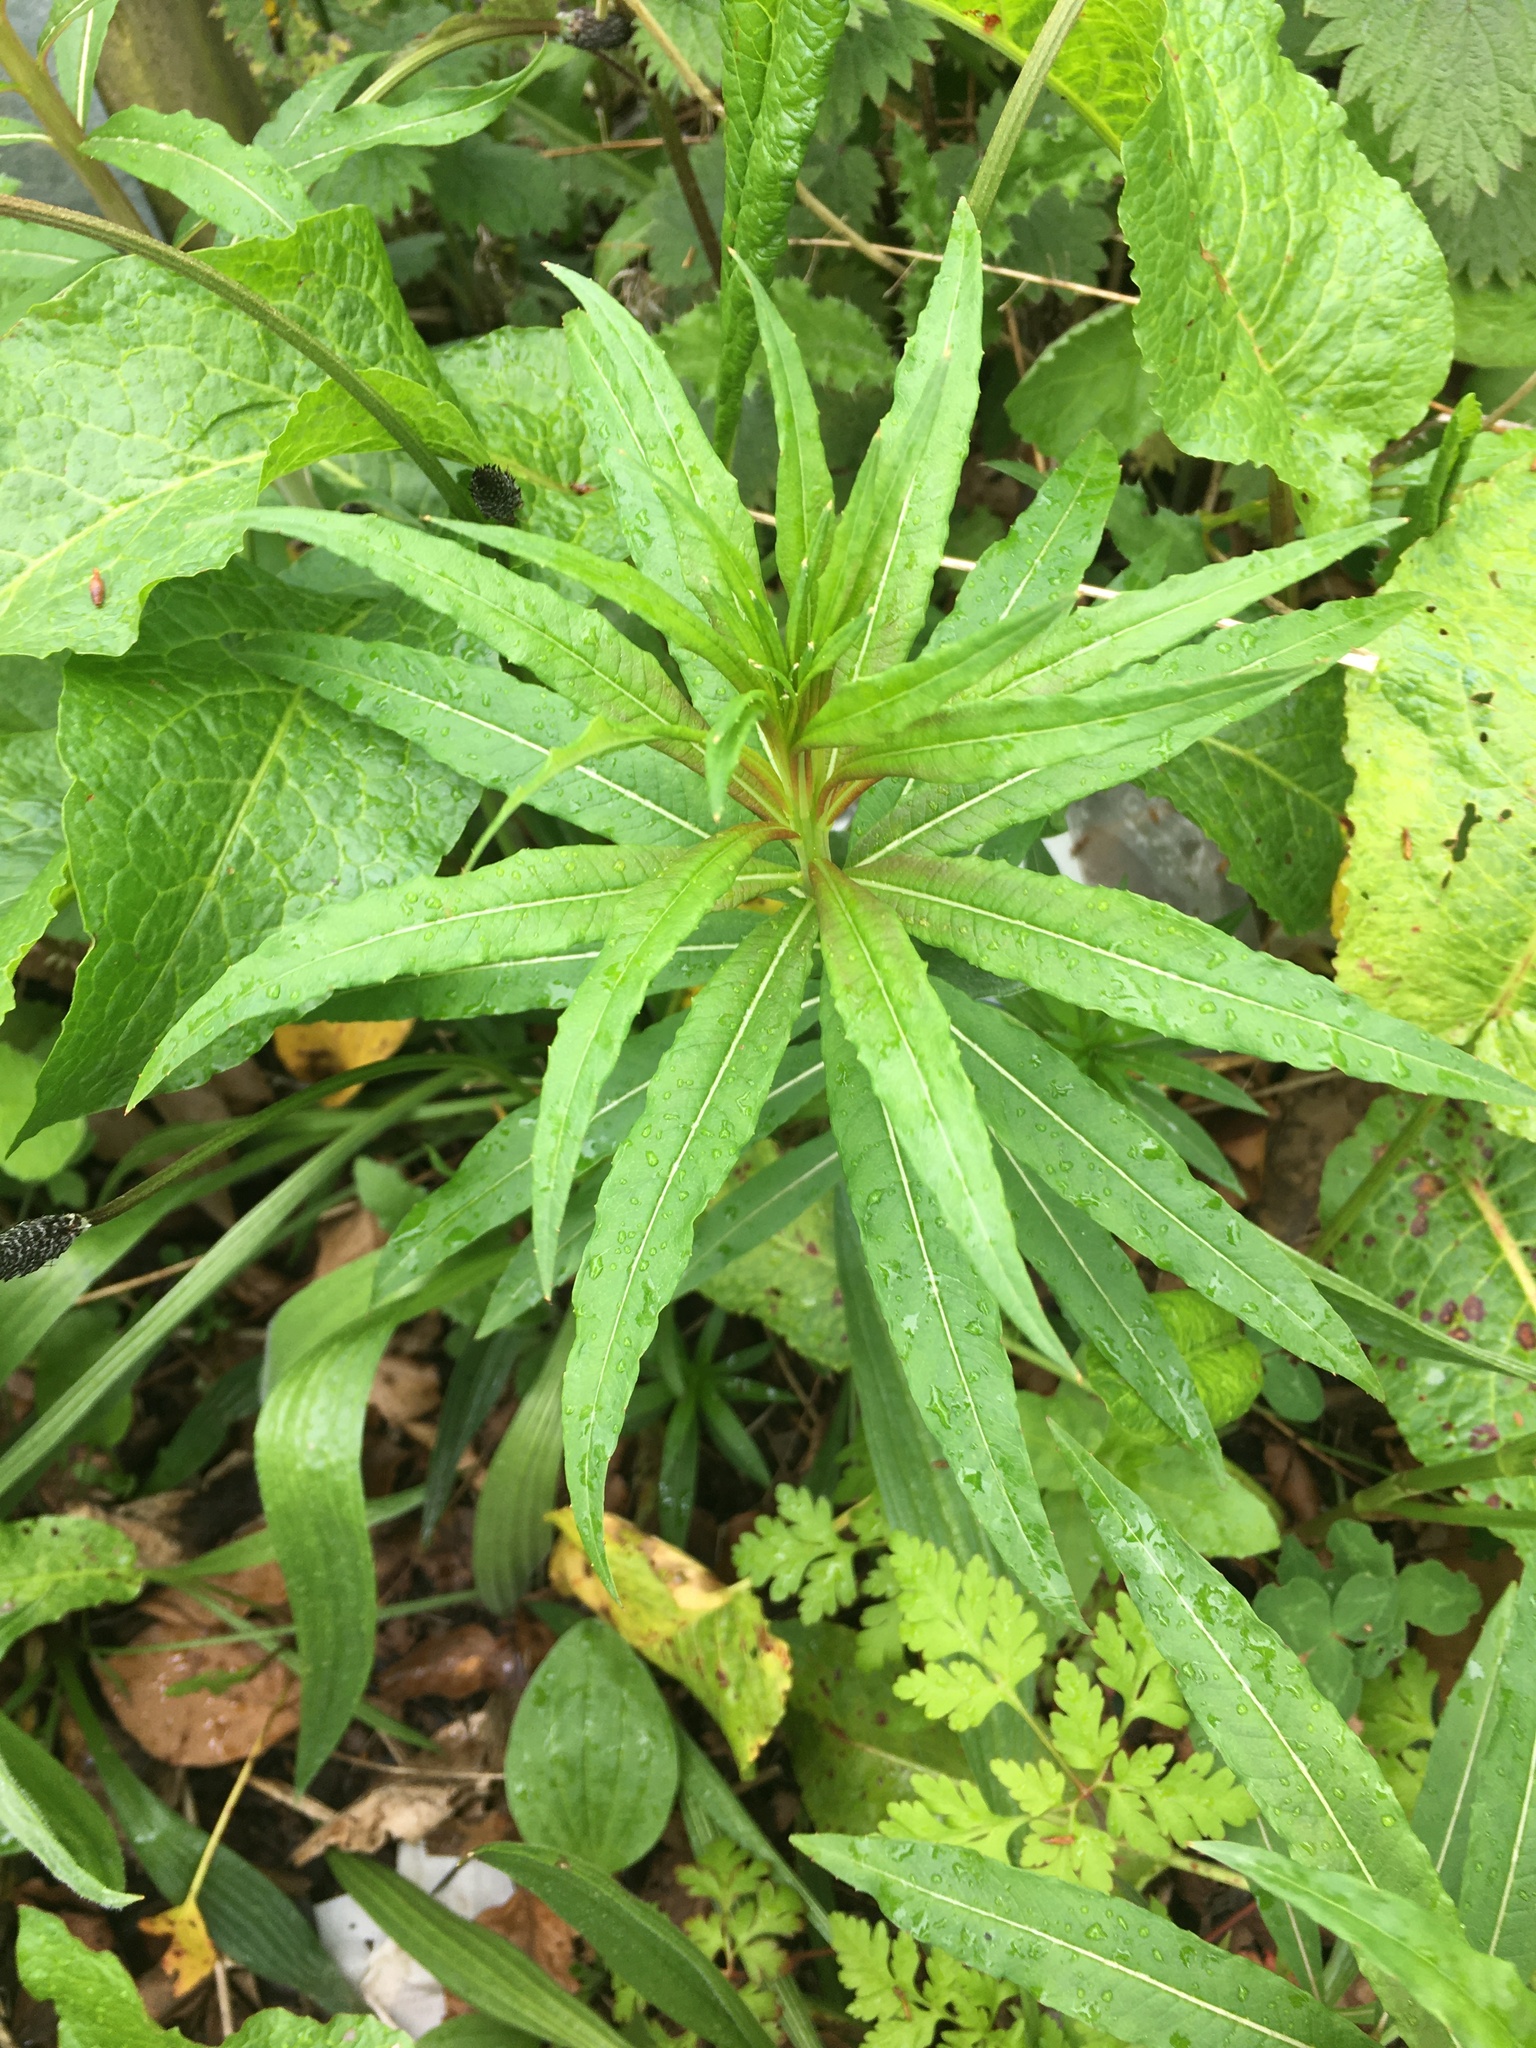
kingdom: Plantae
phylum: Tracheophyta
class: Magnoliopsida
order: Myrtales
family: Onagraceae
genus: Chamaenerion
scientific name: Chamaenerion angustifolium
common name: Fireweed
